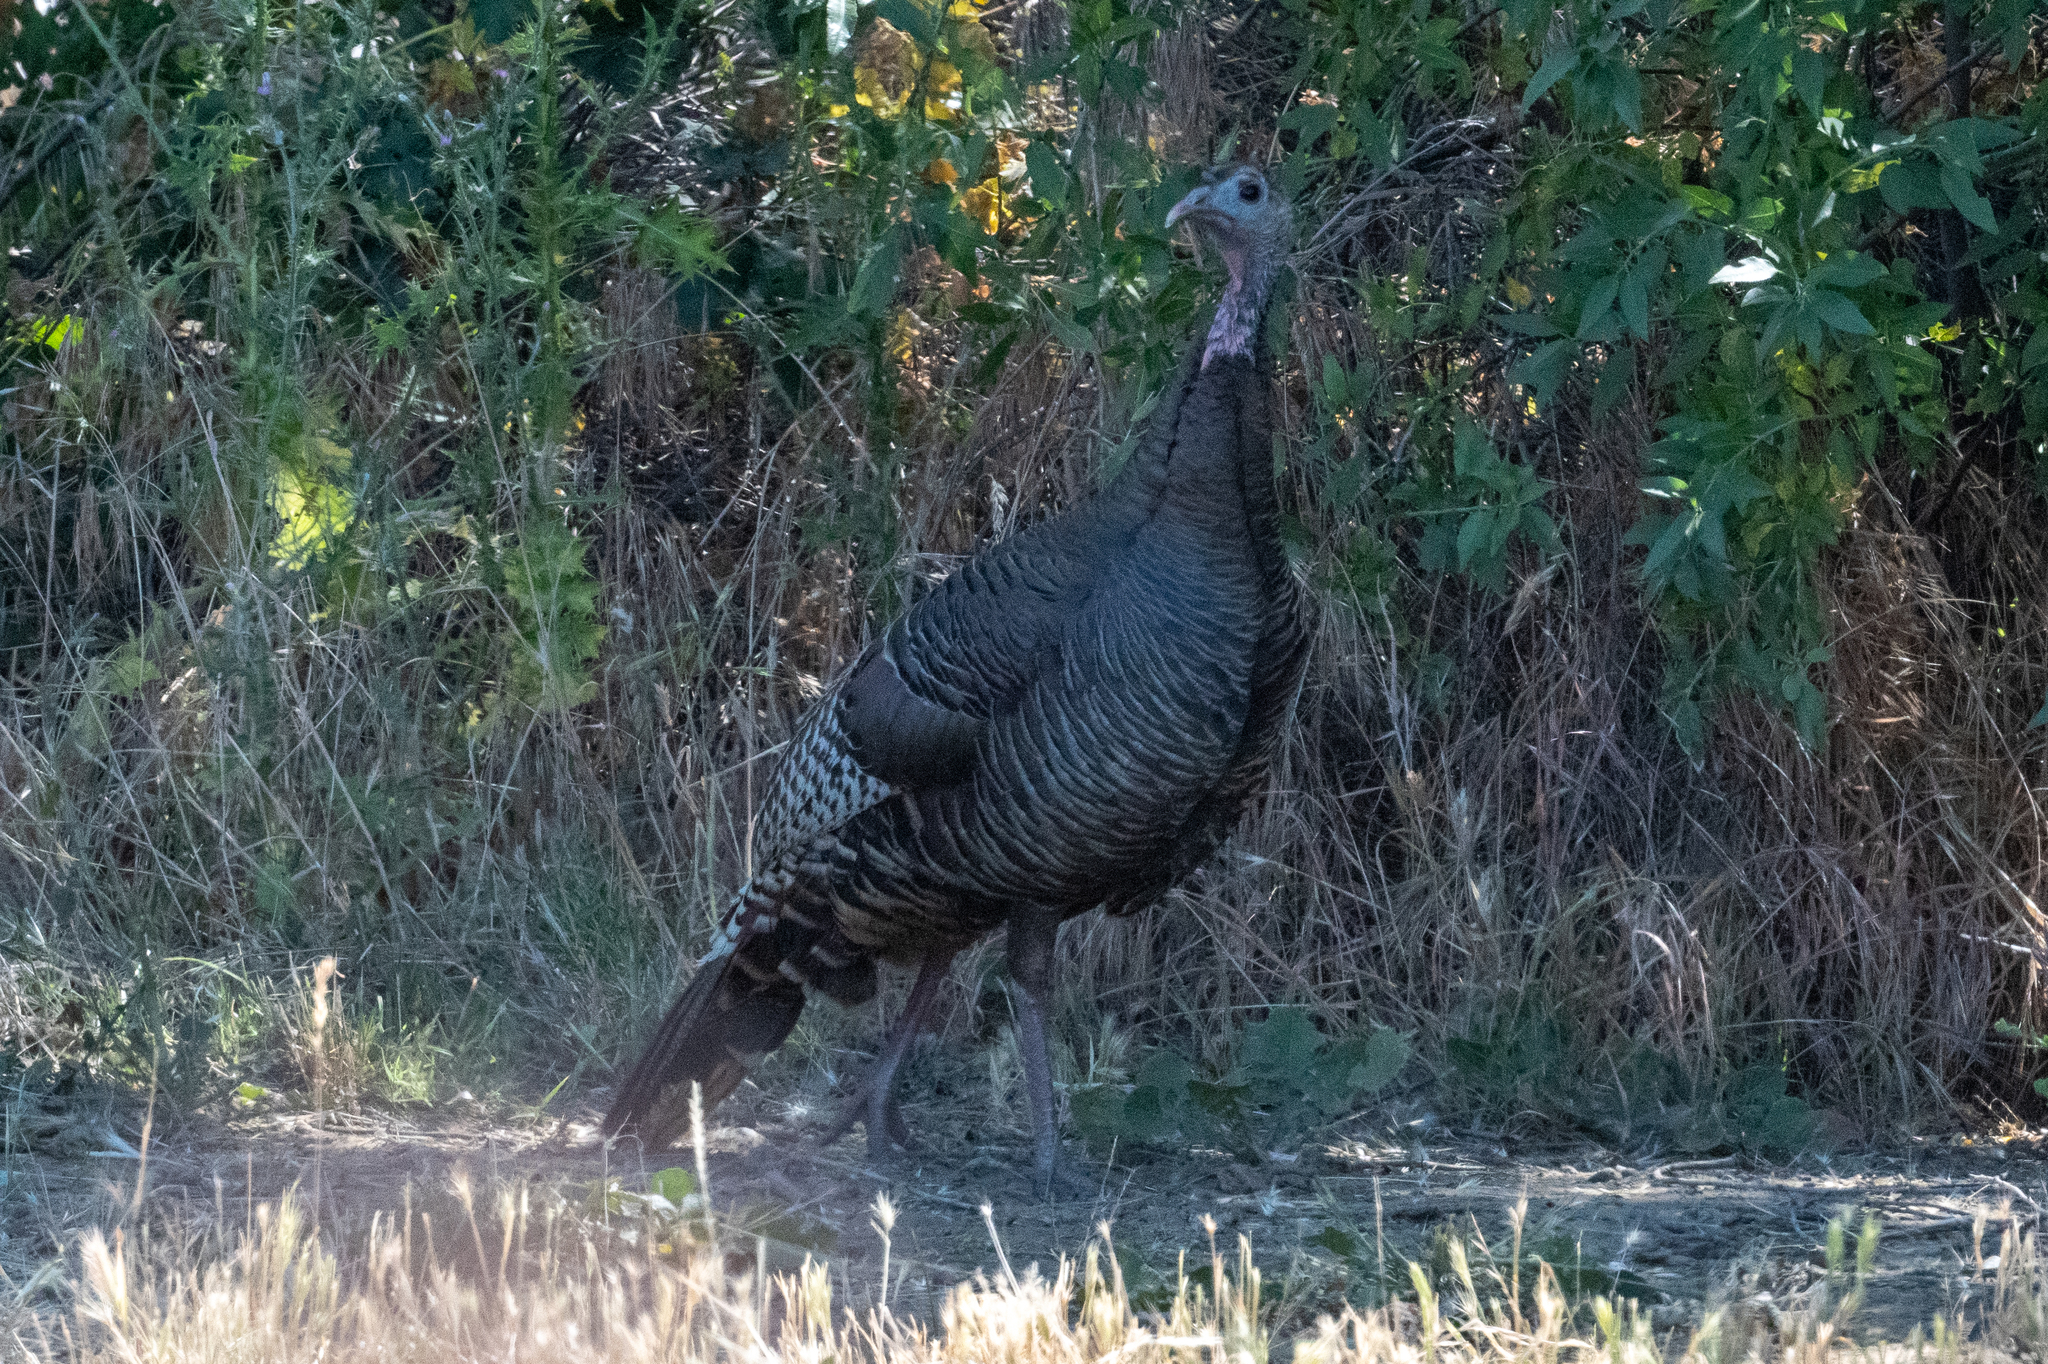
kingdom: Animalia
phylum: Chordata
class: Aves
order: Galliformes
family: Phasianidae
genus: Meleagris
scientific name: Meleagris gallopavo
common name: Wild turkey
